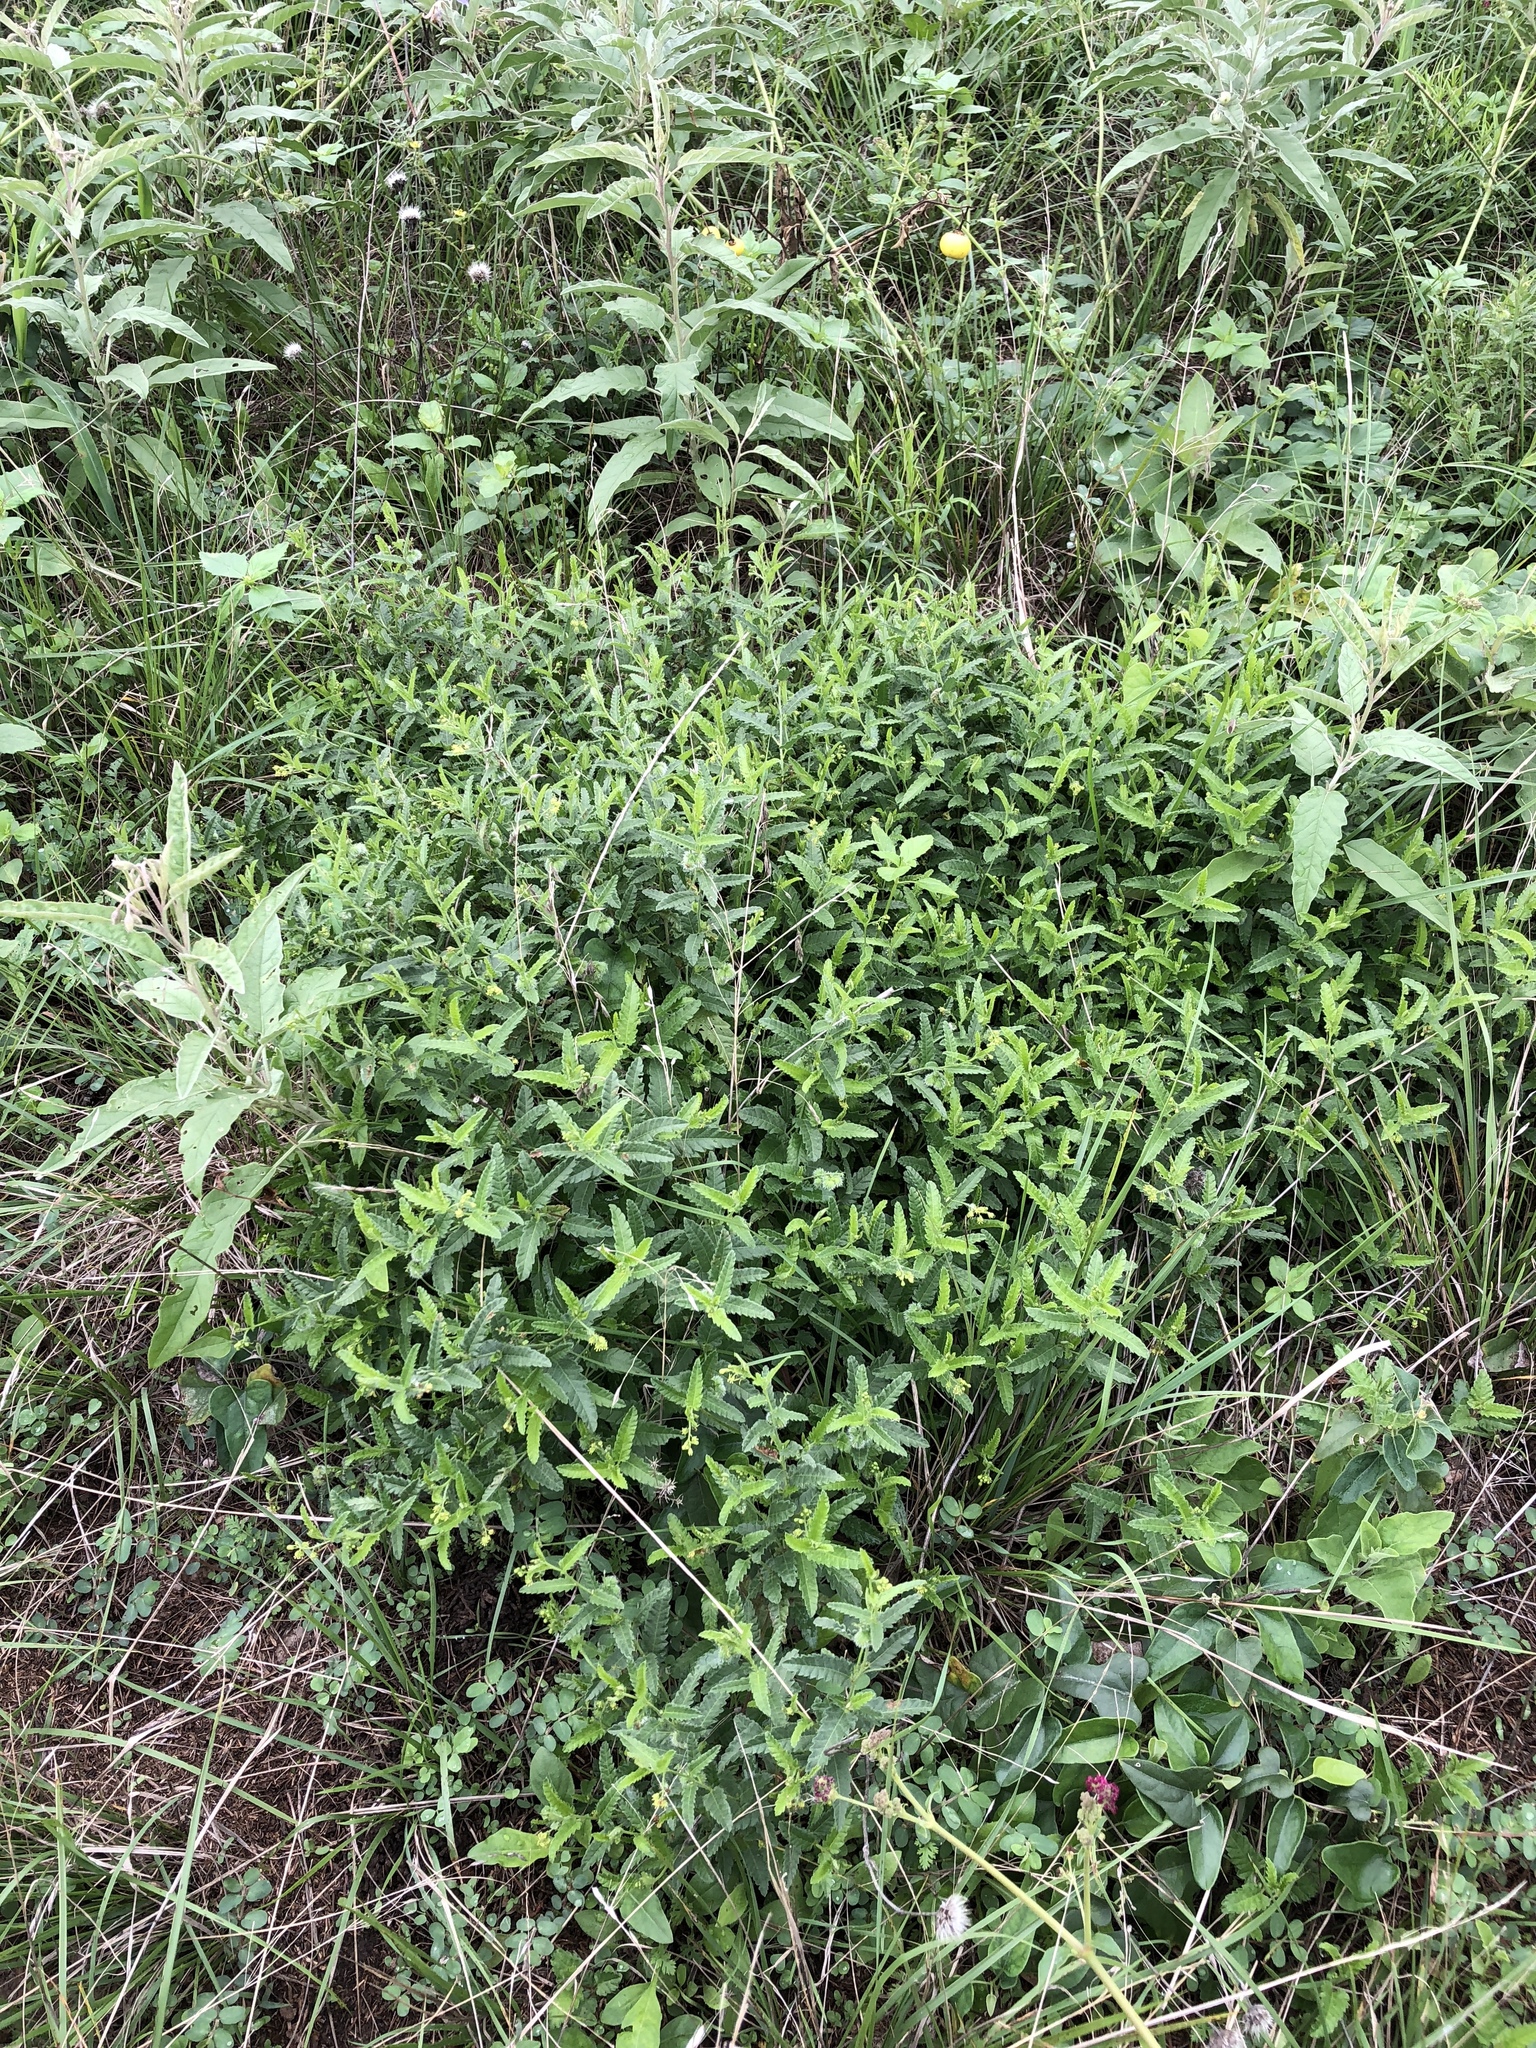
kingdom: Plantae
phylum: Tracheophyta
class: Magnoliopsida
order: Malpighiales
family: Euphorbiaceae
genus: Tragia
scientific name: Tragia ramosa
